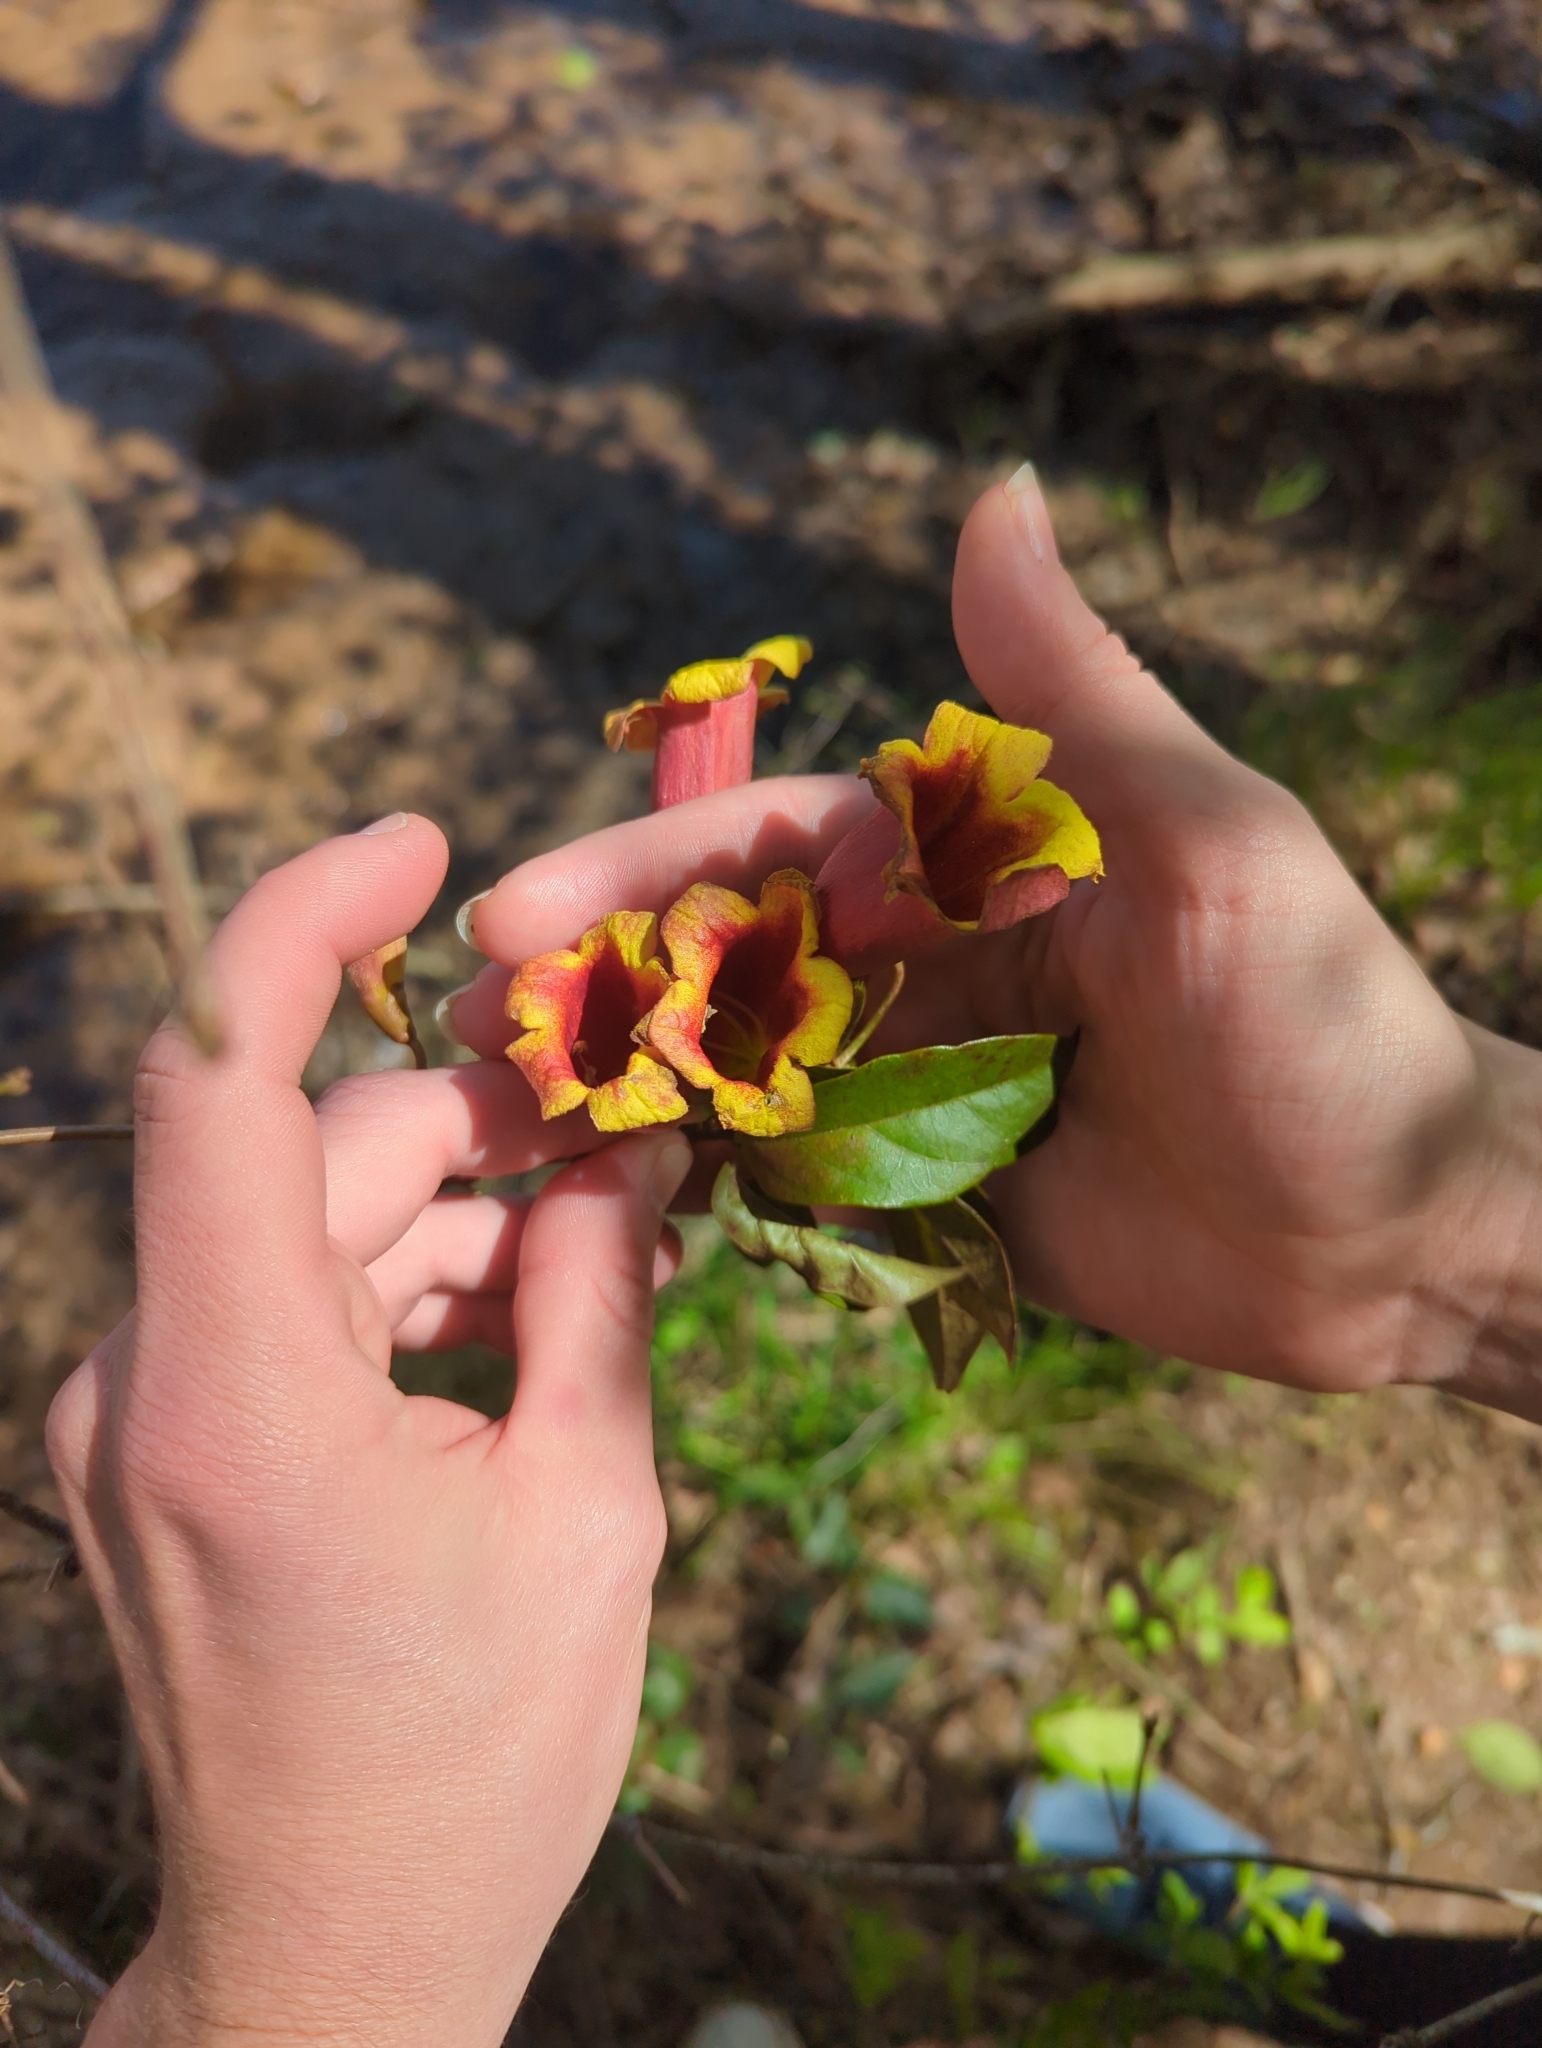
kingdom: Plantae
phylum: Tracheophyta
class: Magnoliopsida
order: Lamiales
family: Bignoniaceae
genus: Bignonia
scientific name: Bignonia capreolata
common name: Crossvine
